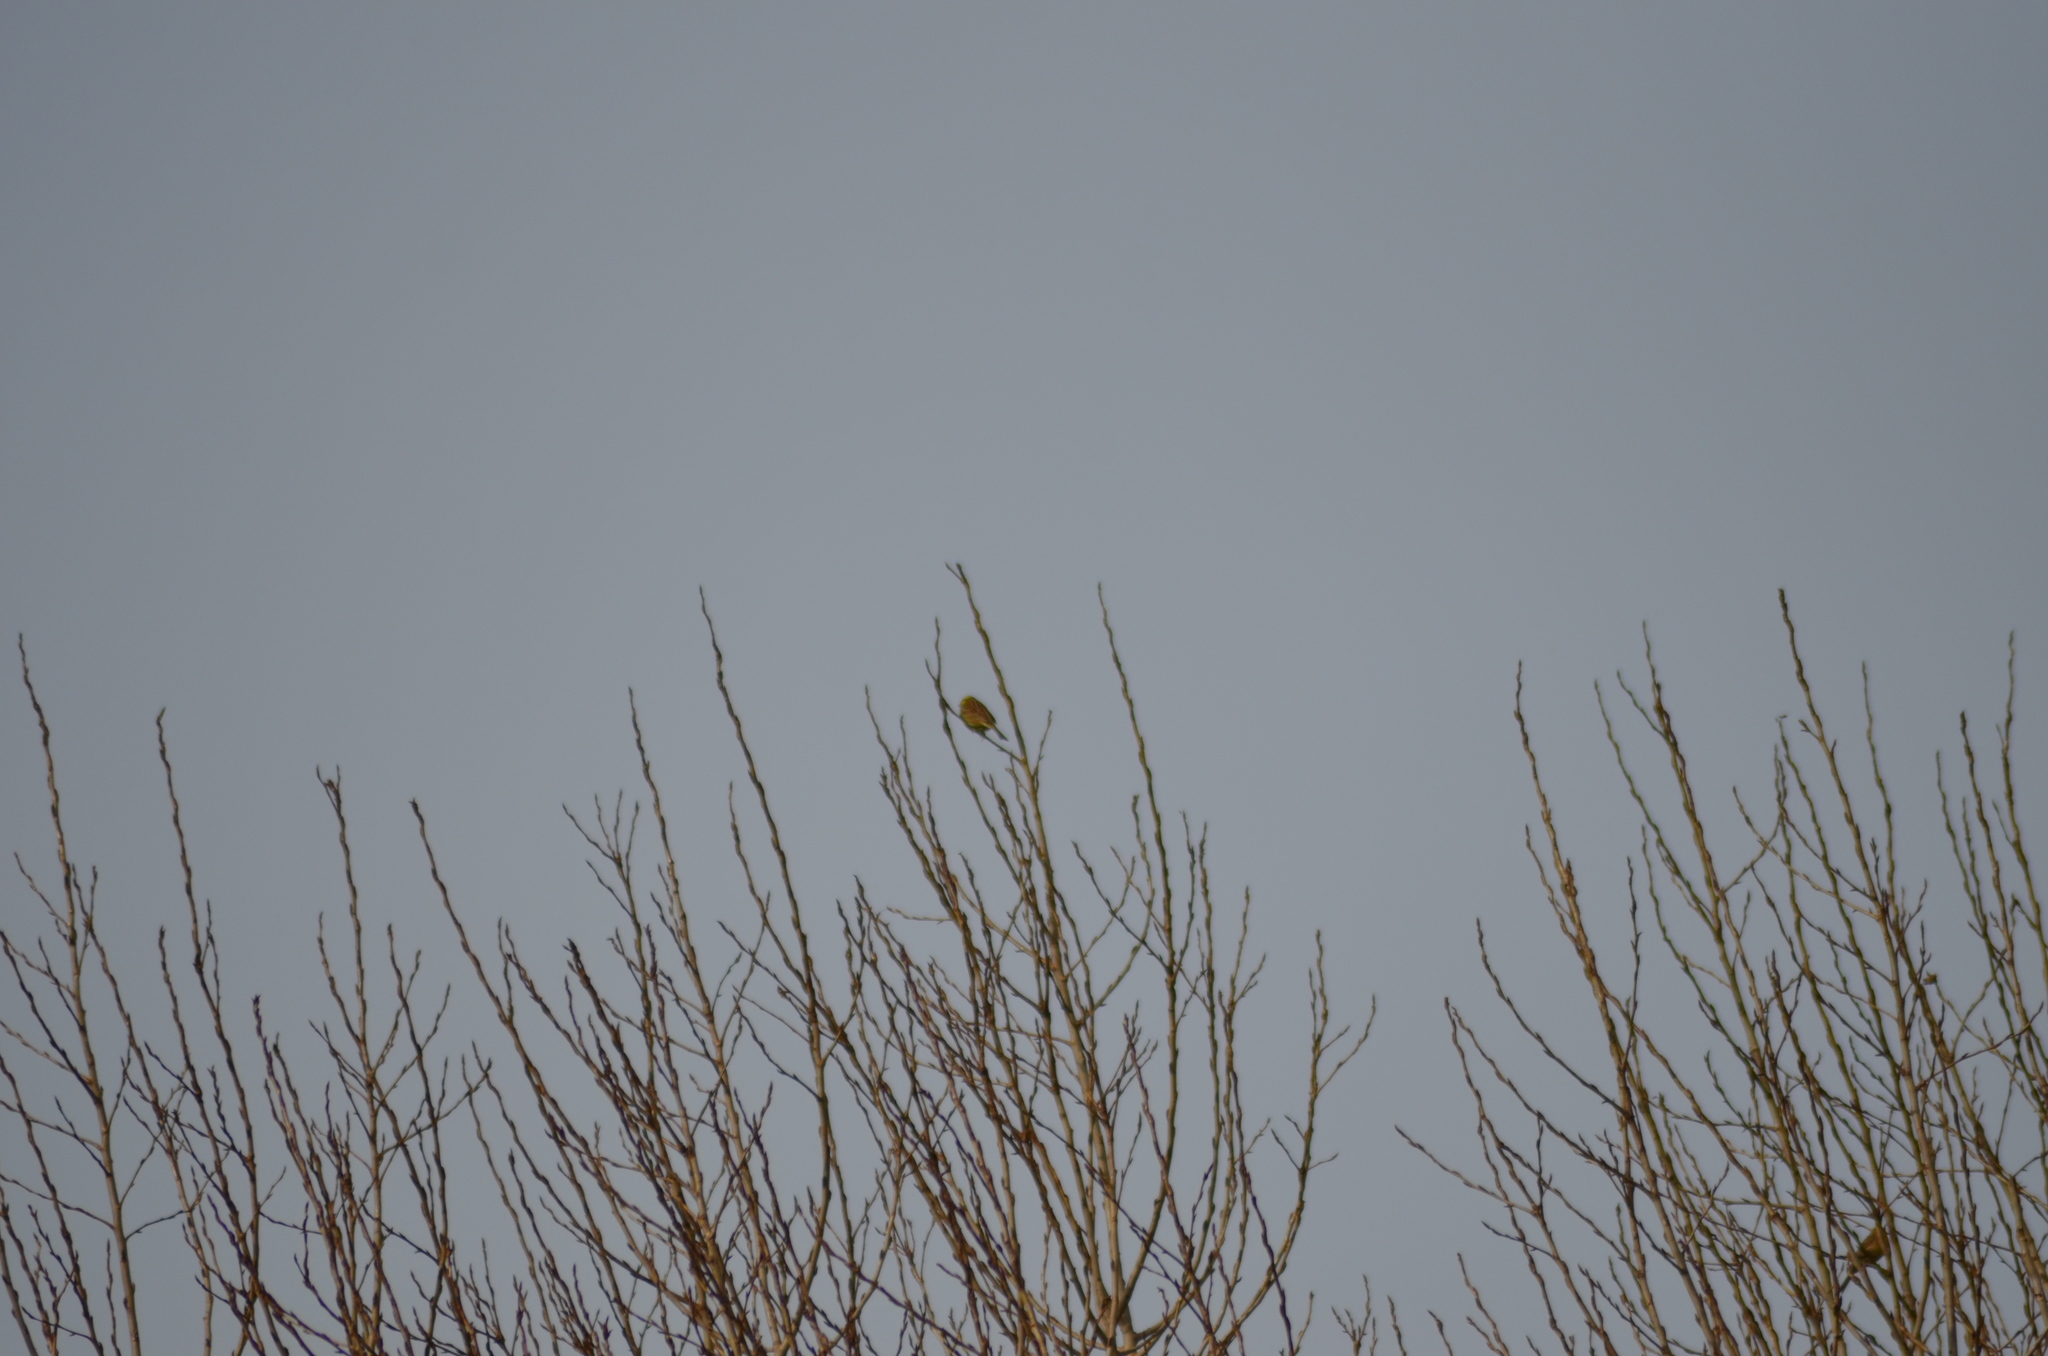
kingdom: Animalia
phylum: Chordata
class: Aves
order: Passeriformes
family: Emberizidae
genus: Emberiza
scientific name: Emberiza cirlus
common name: Cirl bunting
